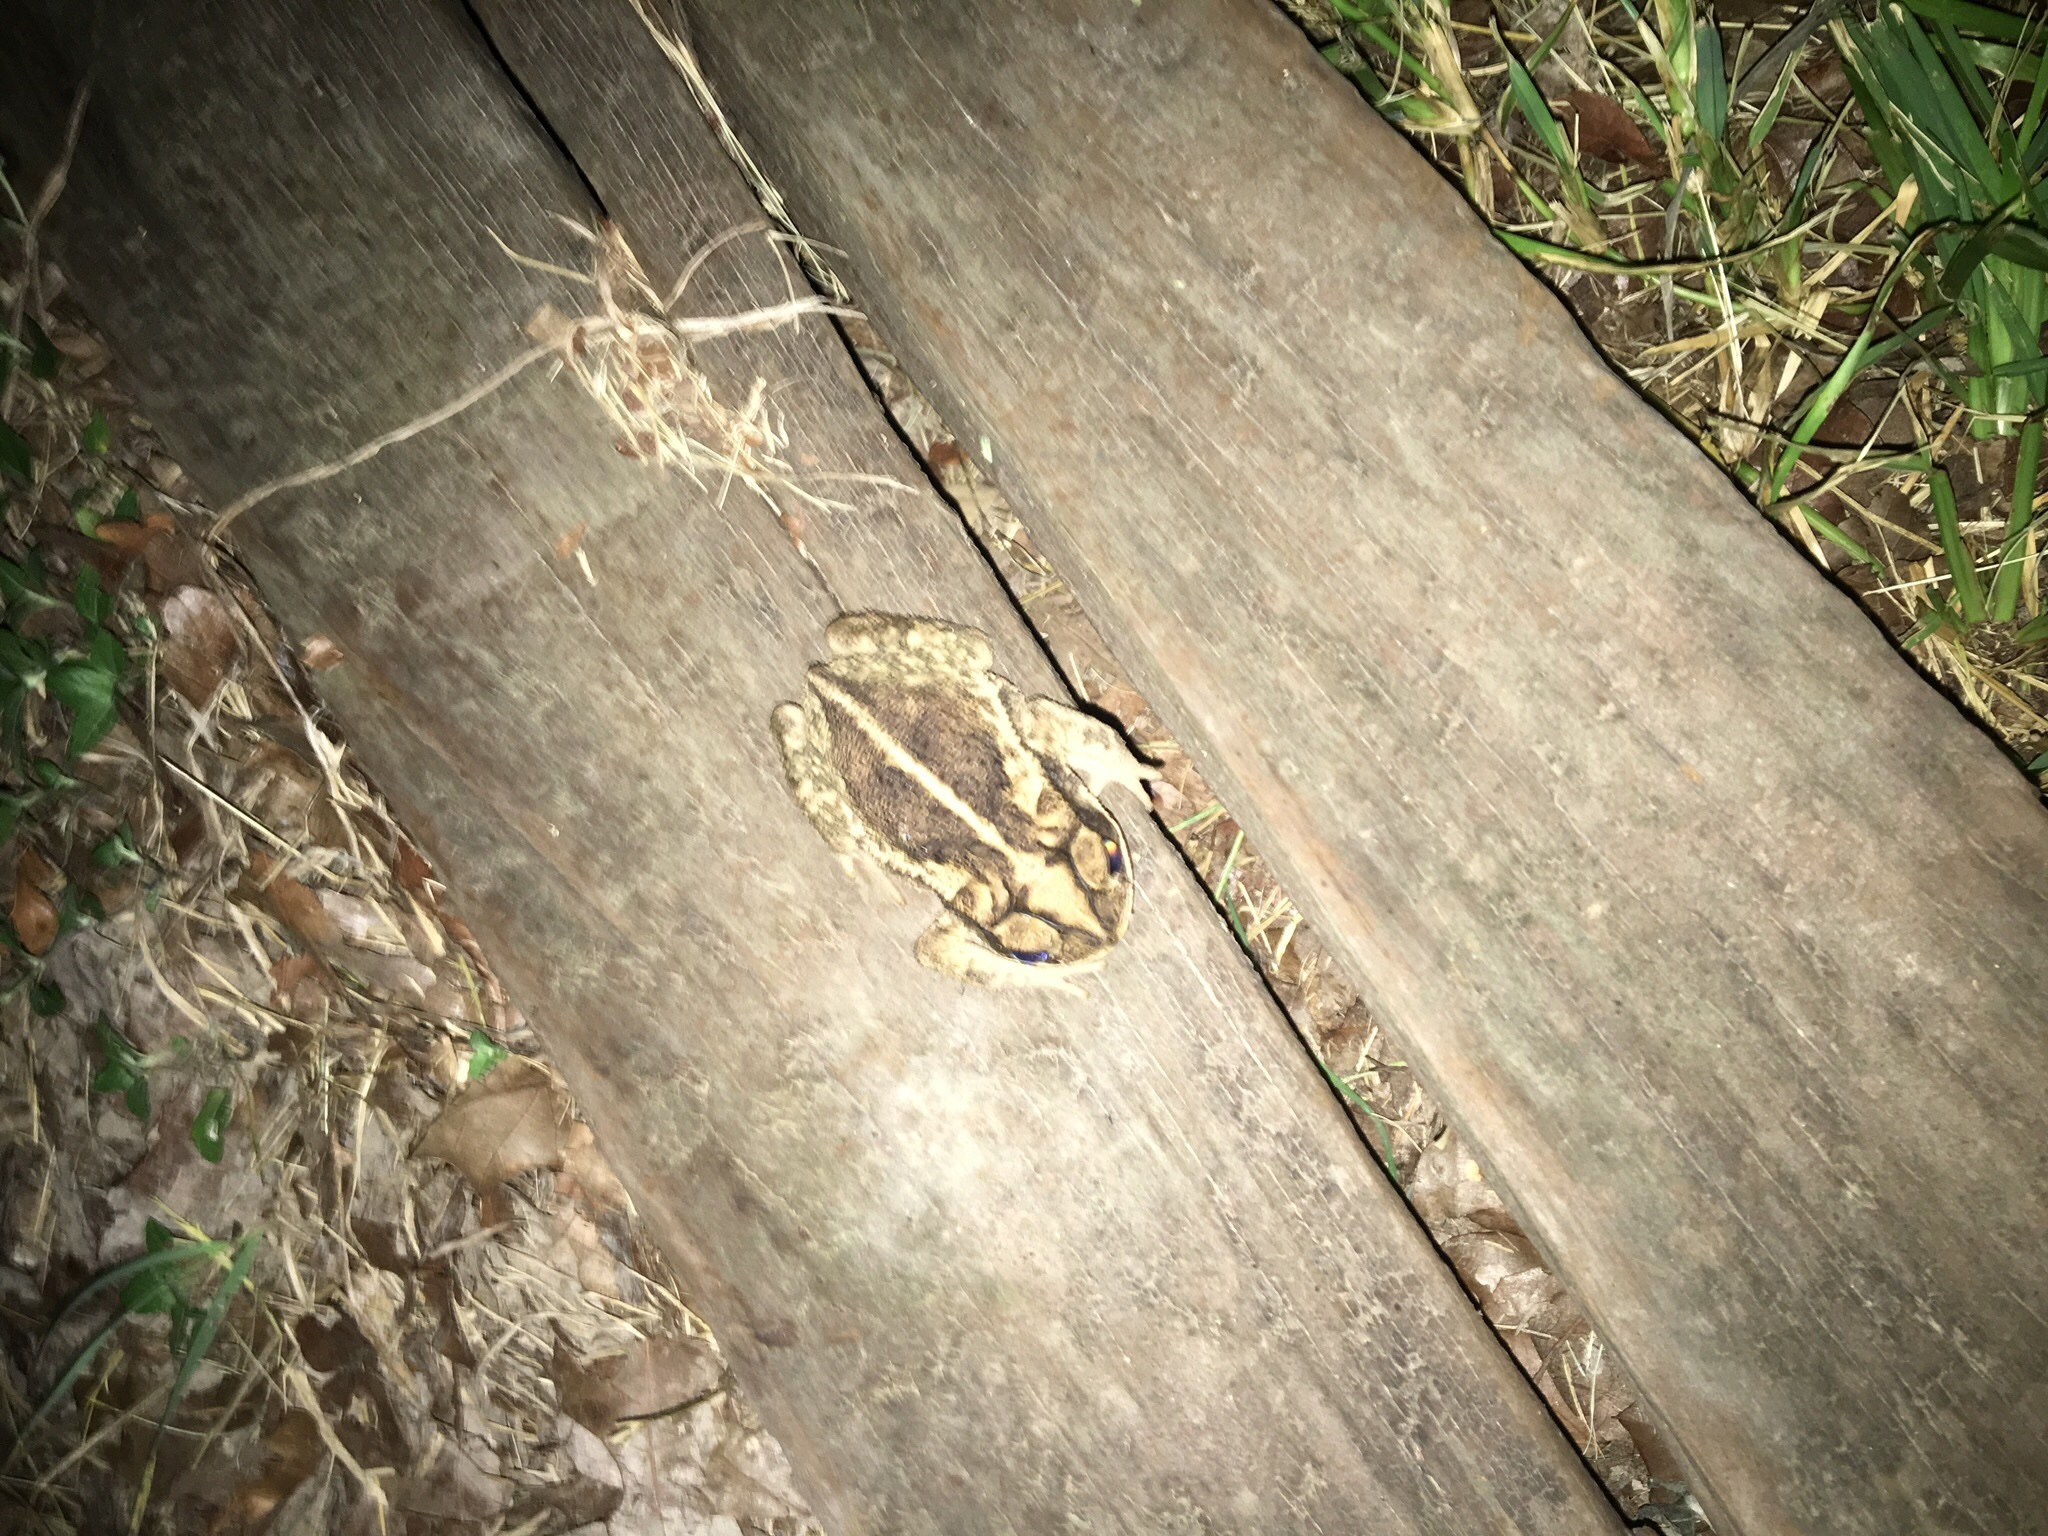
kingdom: Animalia
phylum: Chordata
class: Amphibia
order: Anura
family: Bufonidae
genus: Incilius
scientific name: Incilius nebulifer
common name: Gulf coast toad
